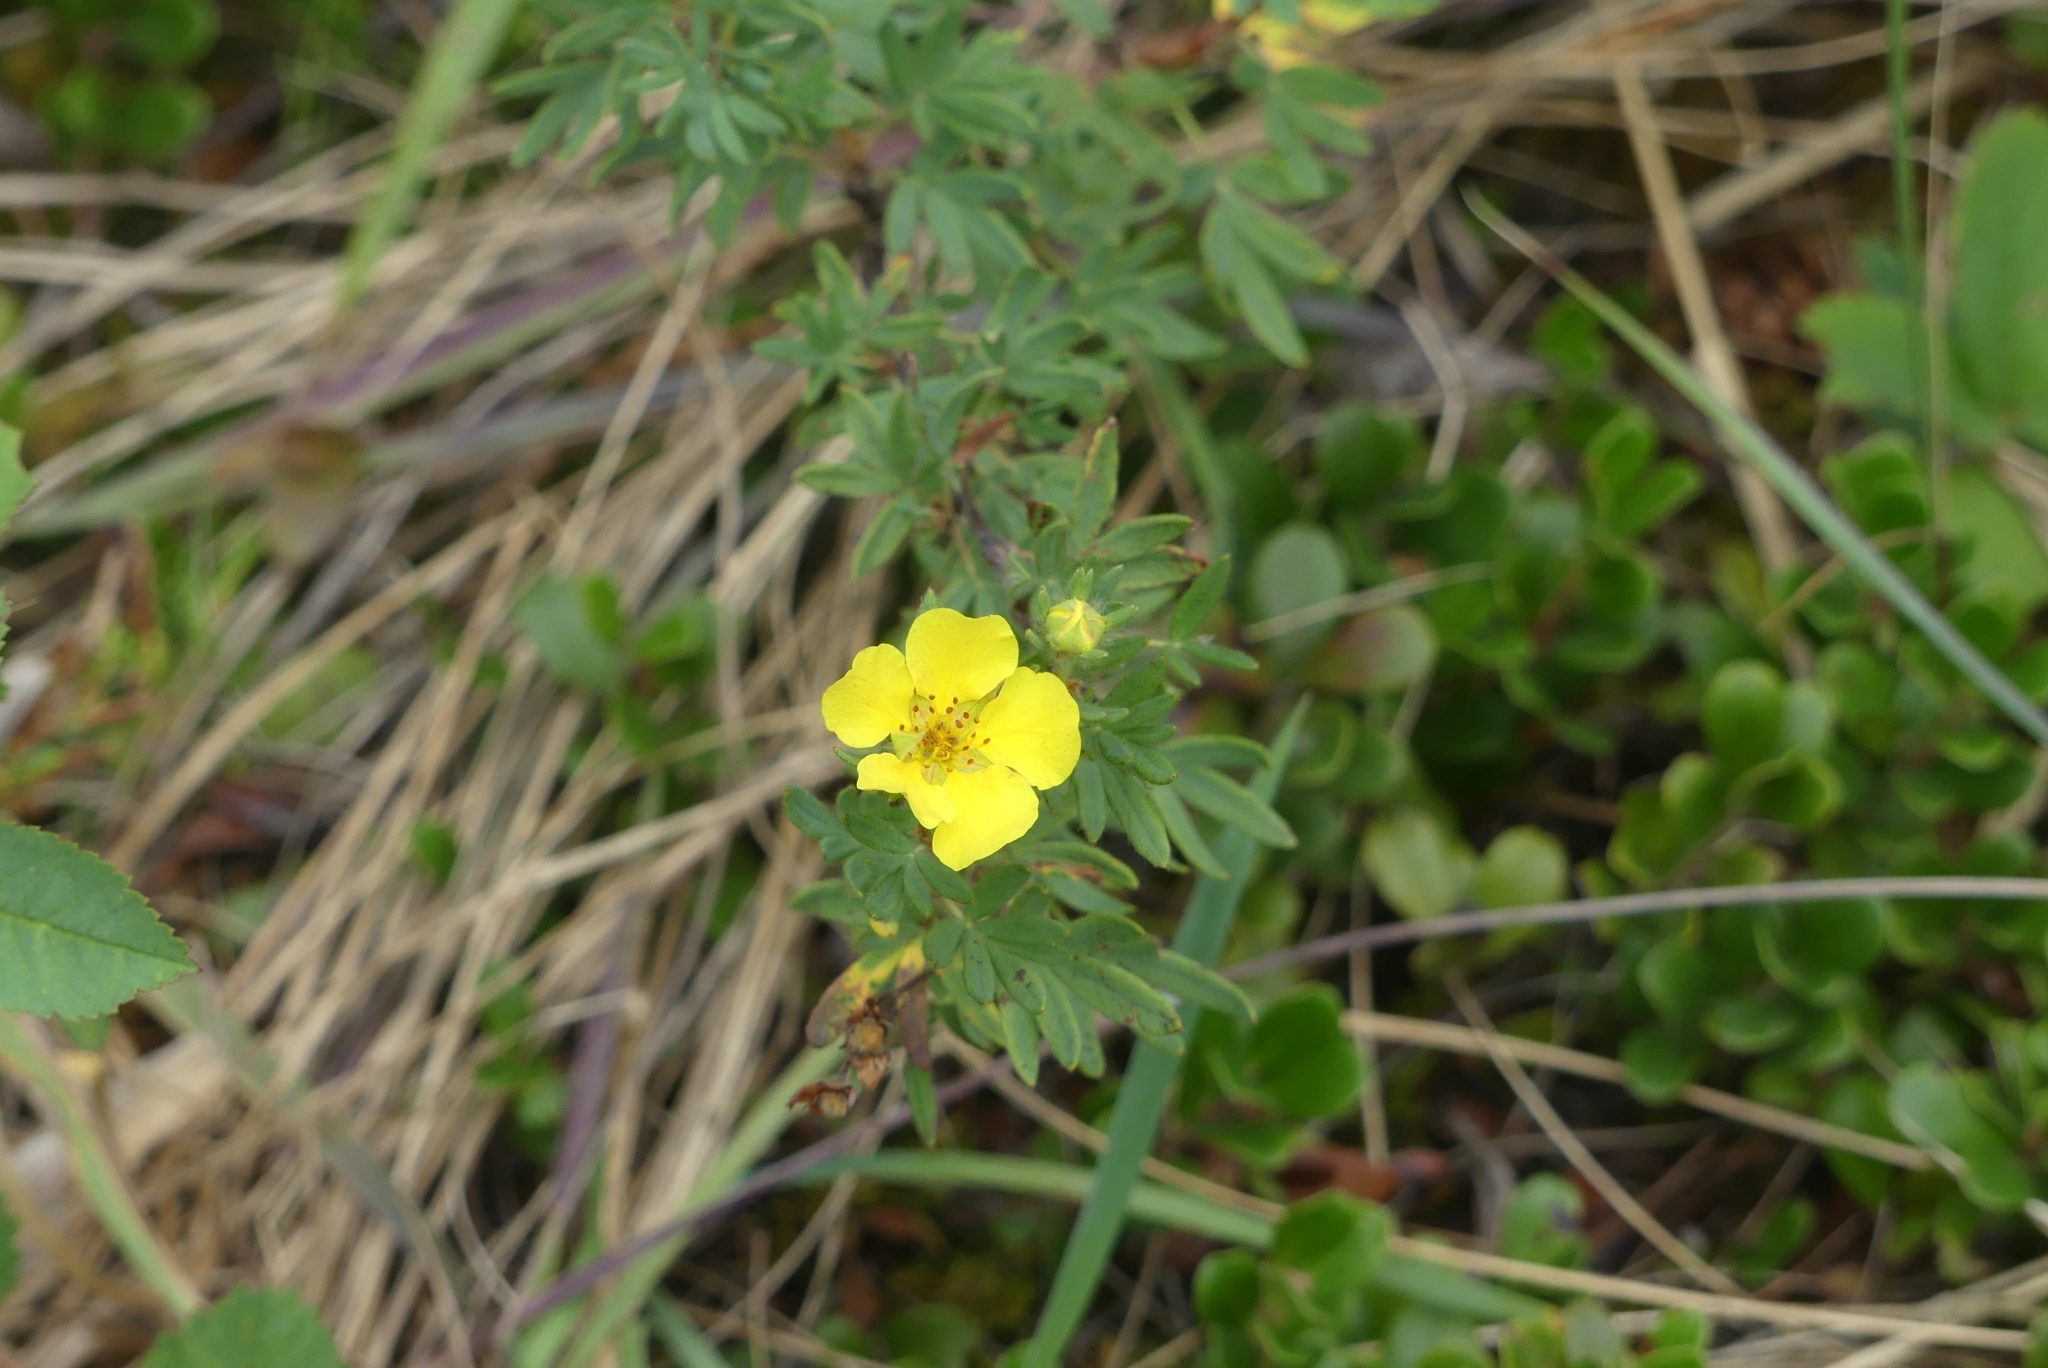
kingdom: Plantae
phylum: Tracheophyta
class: Magnoliopsida
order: Rosales
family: Rosaceae
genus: Dasiphora
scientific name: Dasiphora fruticosa
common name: Shrubby cinquefoil
